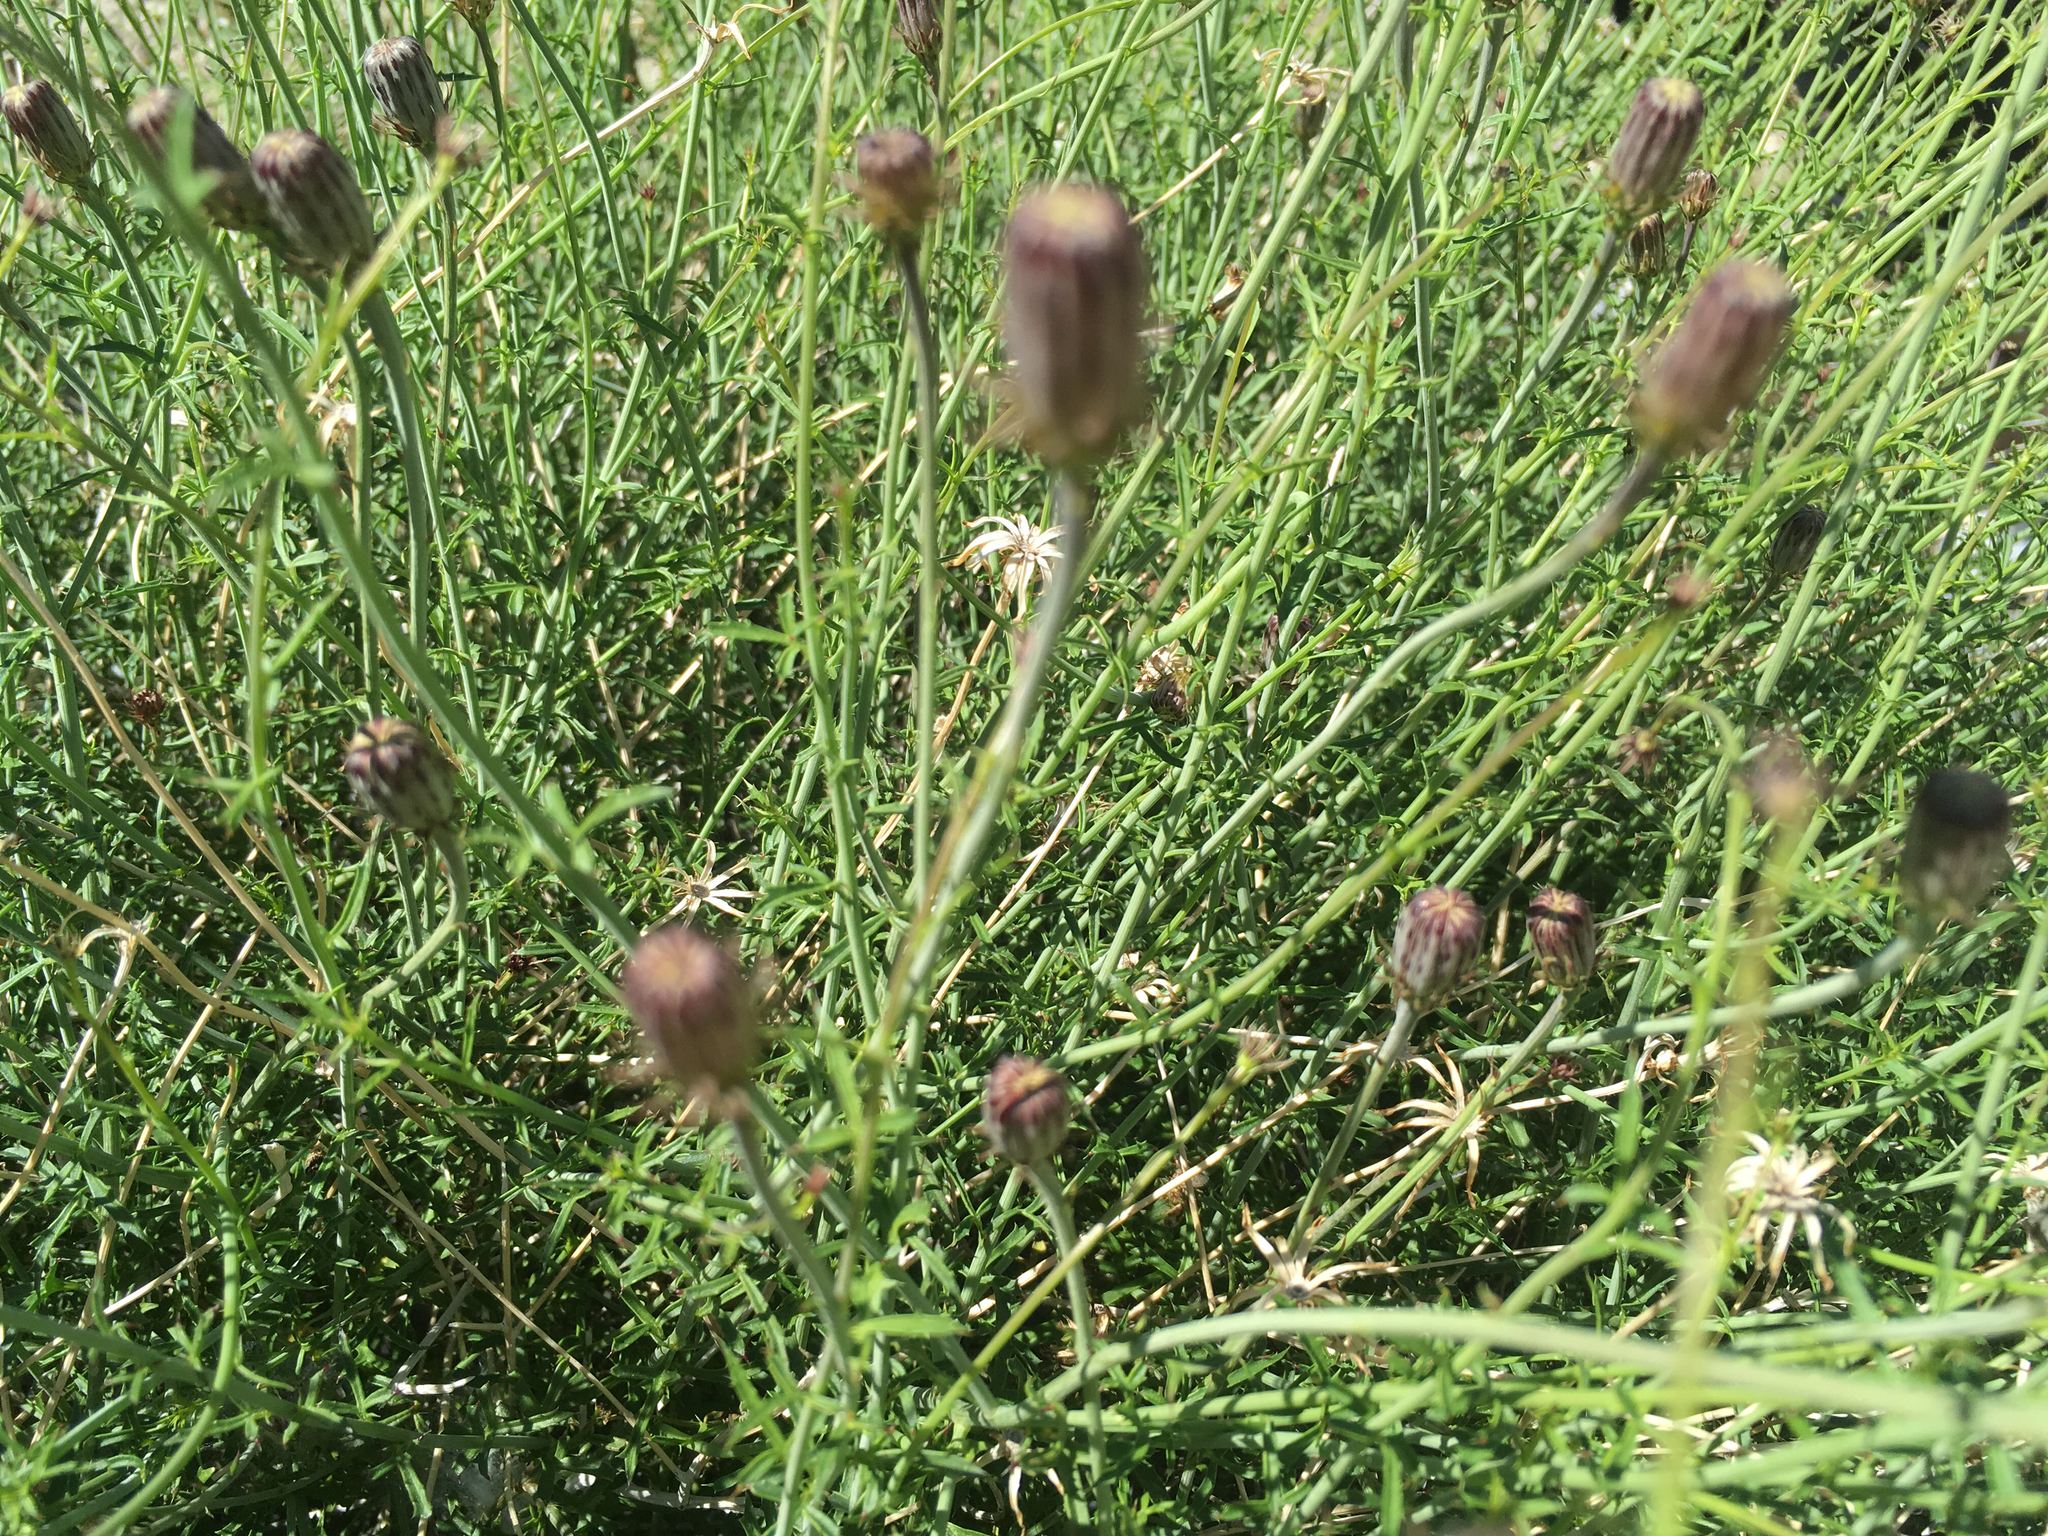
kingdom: Plantae
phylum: Tracheophyta
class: Magnoliopsida
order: Asterales
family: Asteraceae
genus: Adenophyllum
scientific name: Adenophyllum porophylloides
